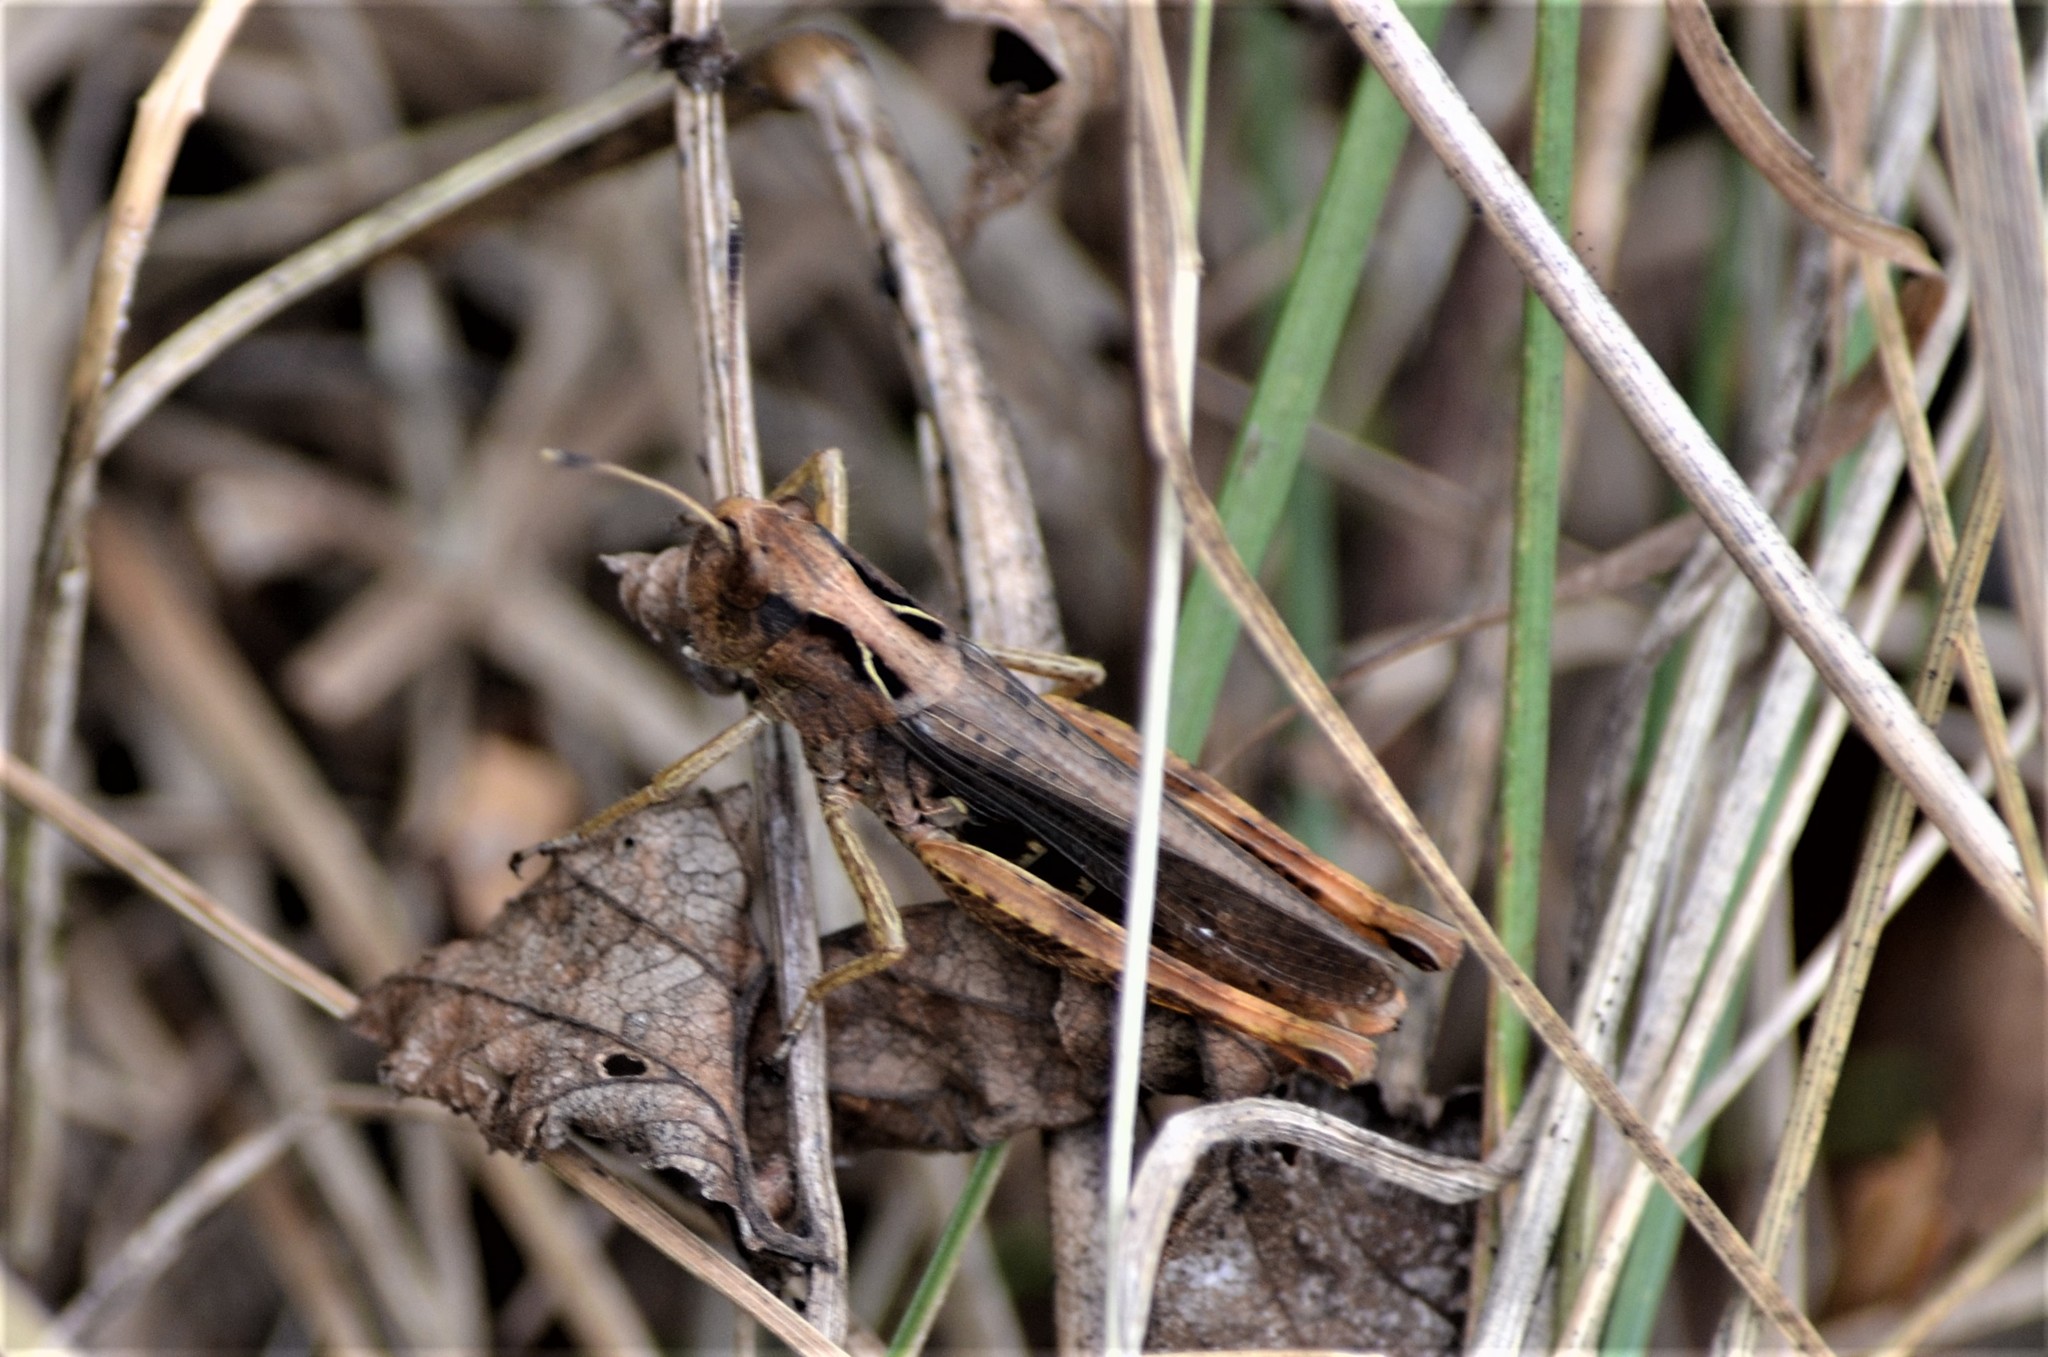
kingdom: Animalia
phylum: Arthropoda
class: Insecta
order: Orthoptera
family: Acrididae
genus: Gomphocerippus
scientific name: Gomphocerippus rufus
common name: Rufous grasshopper
